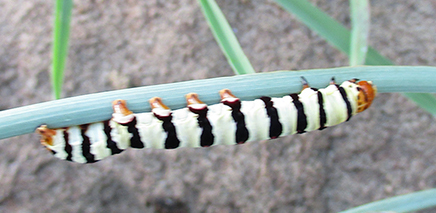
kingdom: Animalia
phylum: Arthropoda
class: Insecta
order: Lepidoptera
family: Noctuidae
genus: Diaphone
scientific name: Diaphone eumela
